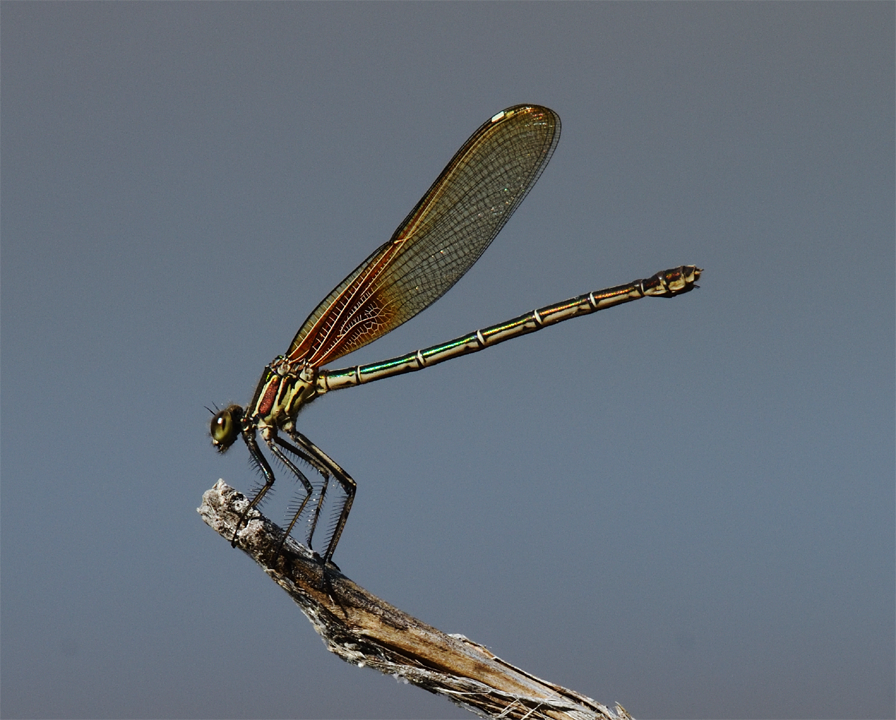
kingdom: Animalia
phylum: Arthropoda
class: Insecta
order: Odonata
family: Calopterygidae
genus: Hetaerina
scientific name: Hetaerina americana
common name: American rubyspot
